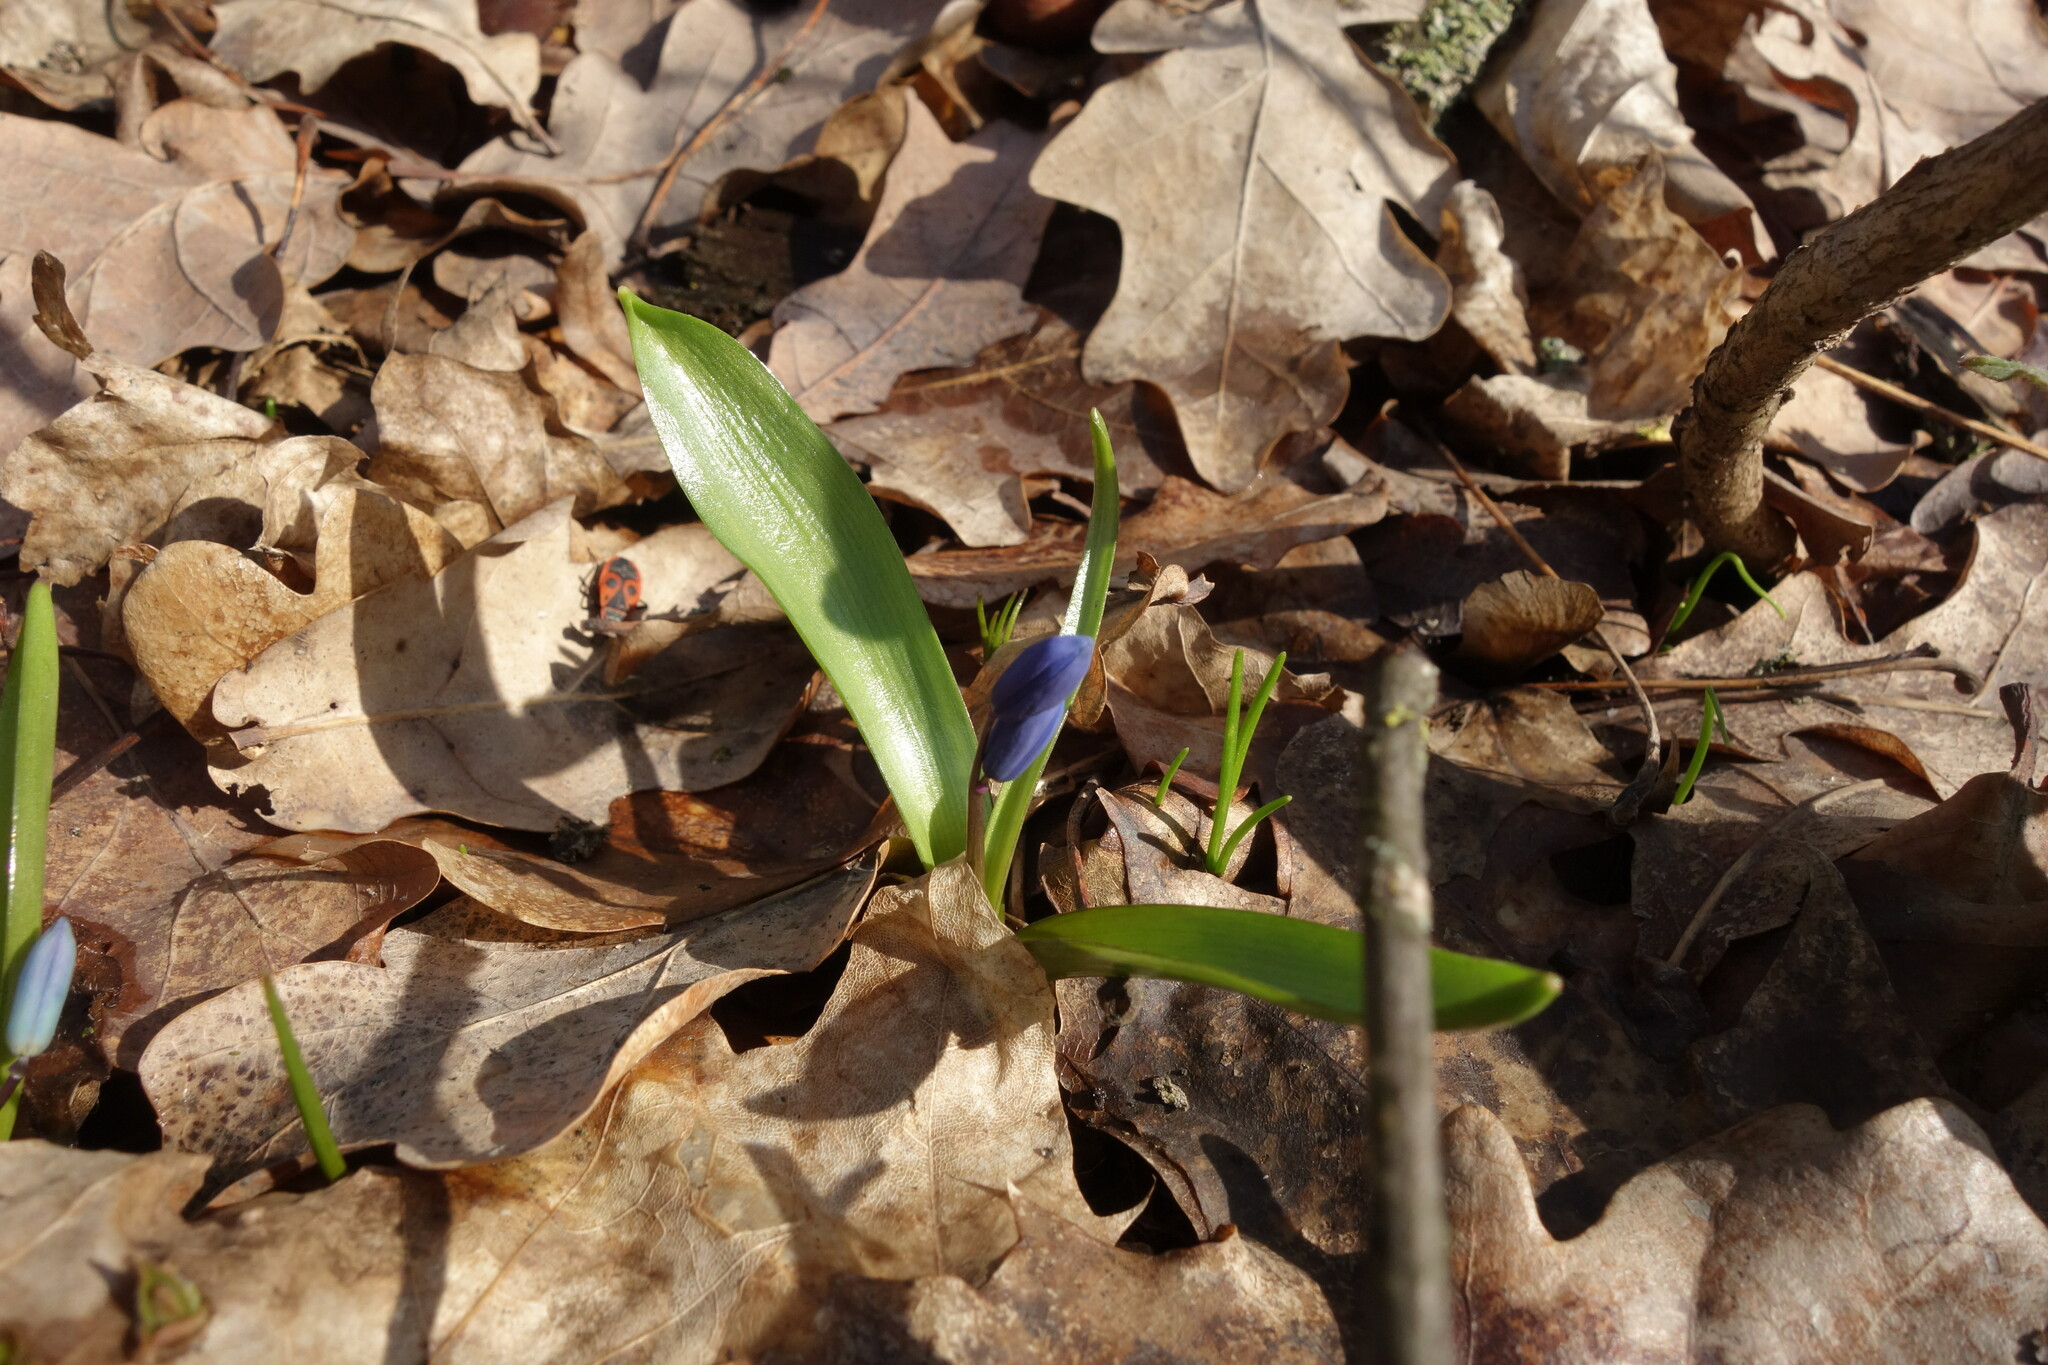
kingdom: Plantae
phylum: Tracheophyta
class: Liliopsida
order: Asparagales
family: Asparagaceae
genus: Scilla
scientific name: Scilla siberica
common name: Siberian squill
